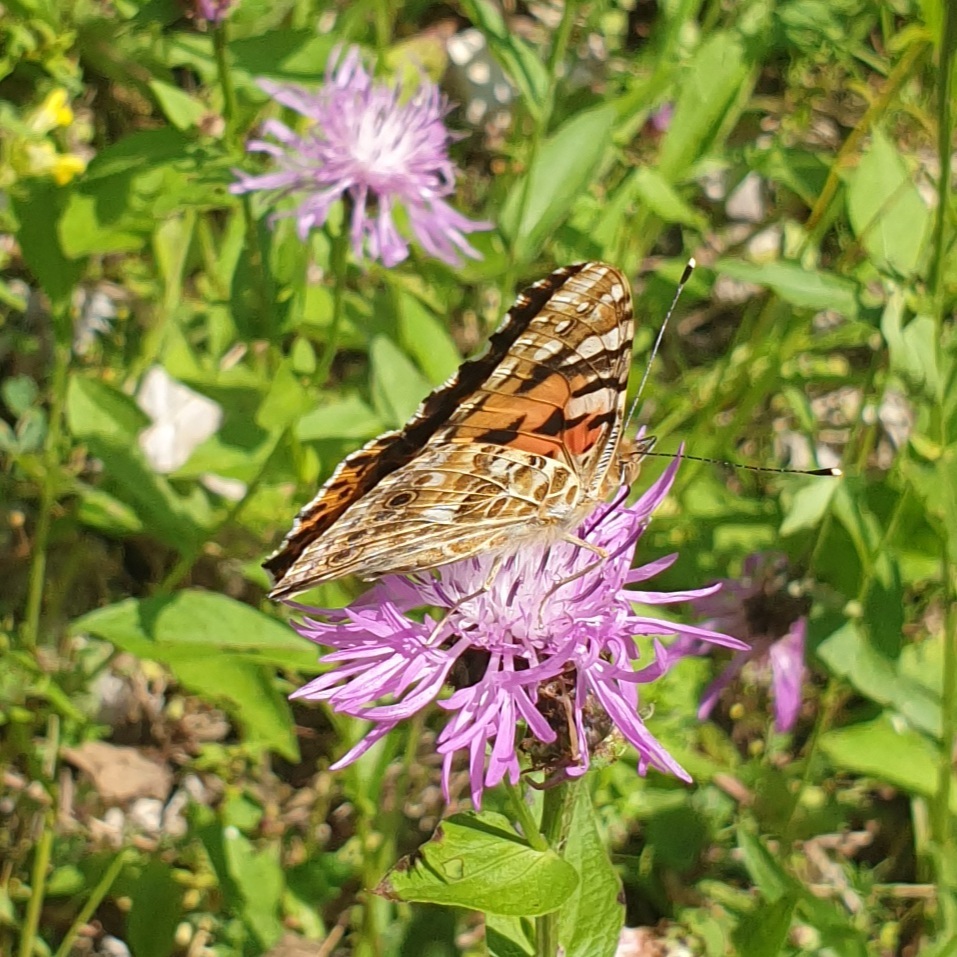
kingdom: Animalia
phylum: Arthropoda
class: Insecta
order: Lepidoptera
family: Nymphalidae
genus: Vanessa
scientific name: Vanessa cardui
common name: Painted lady
